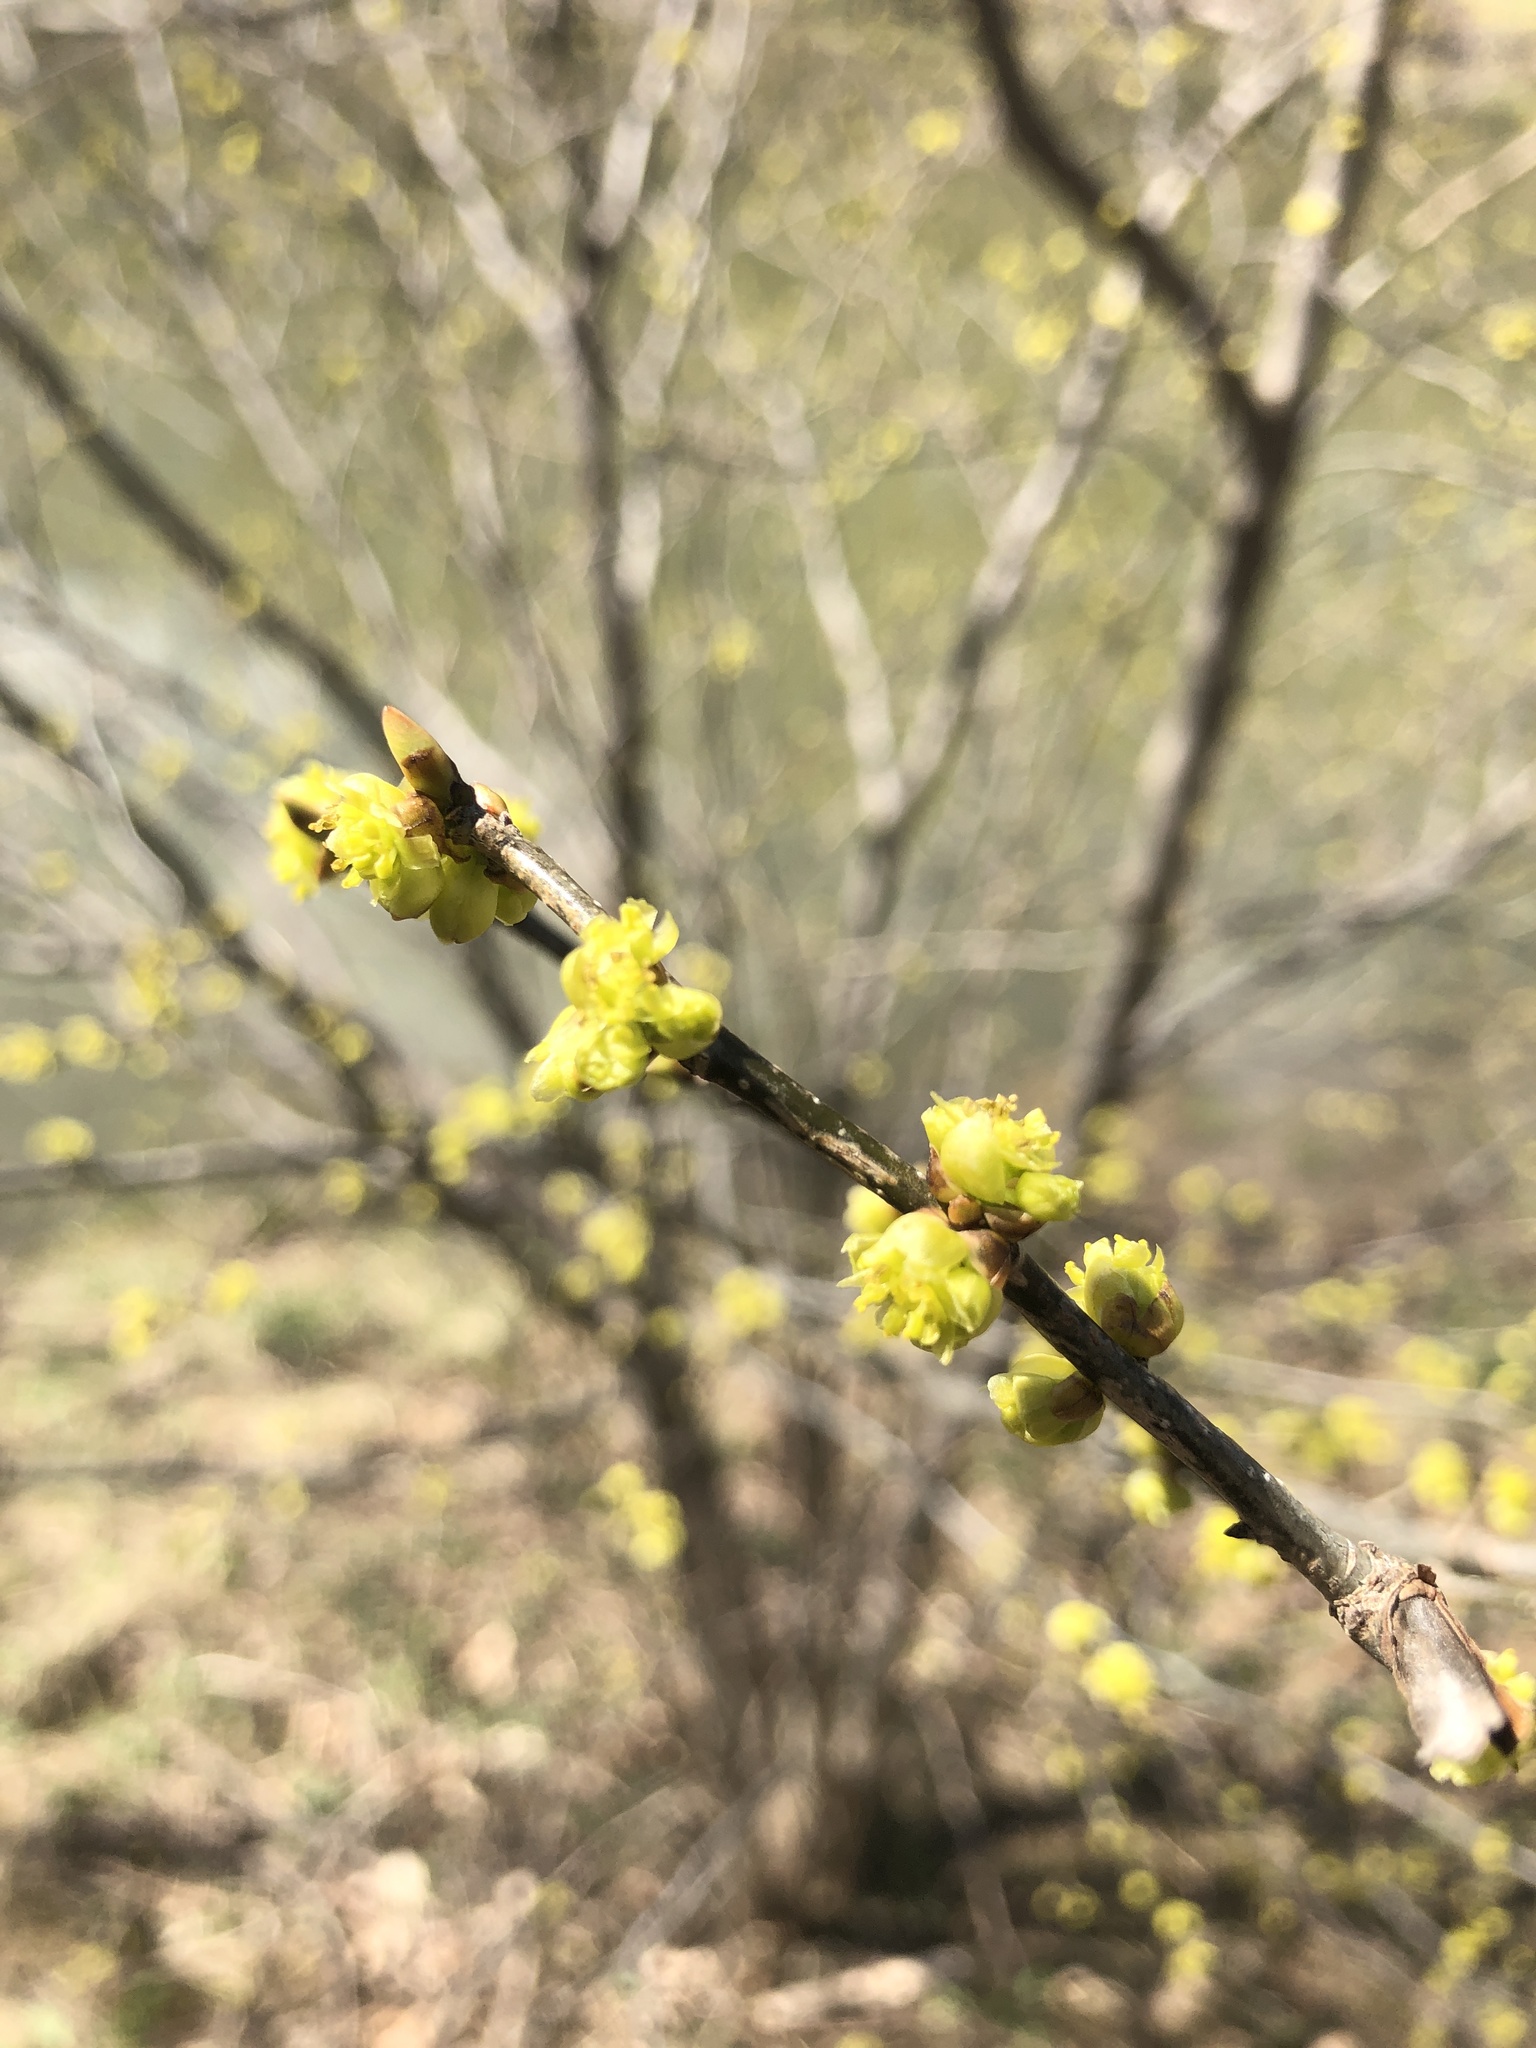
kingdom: Plantae
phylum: Tracheophyta
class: Magnoliopsida
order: Laurales
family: Lauraceae
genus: Lindera
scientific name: Lindera benzoin
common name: Spicebush
